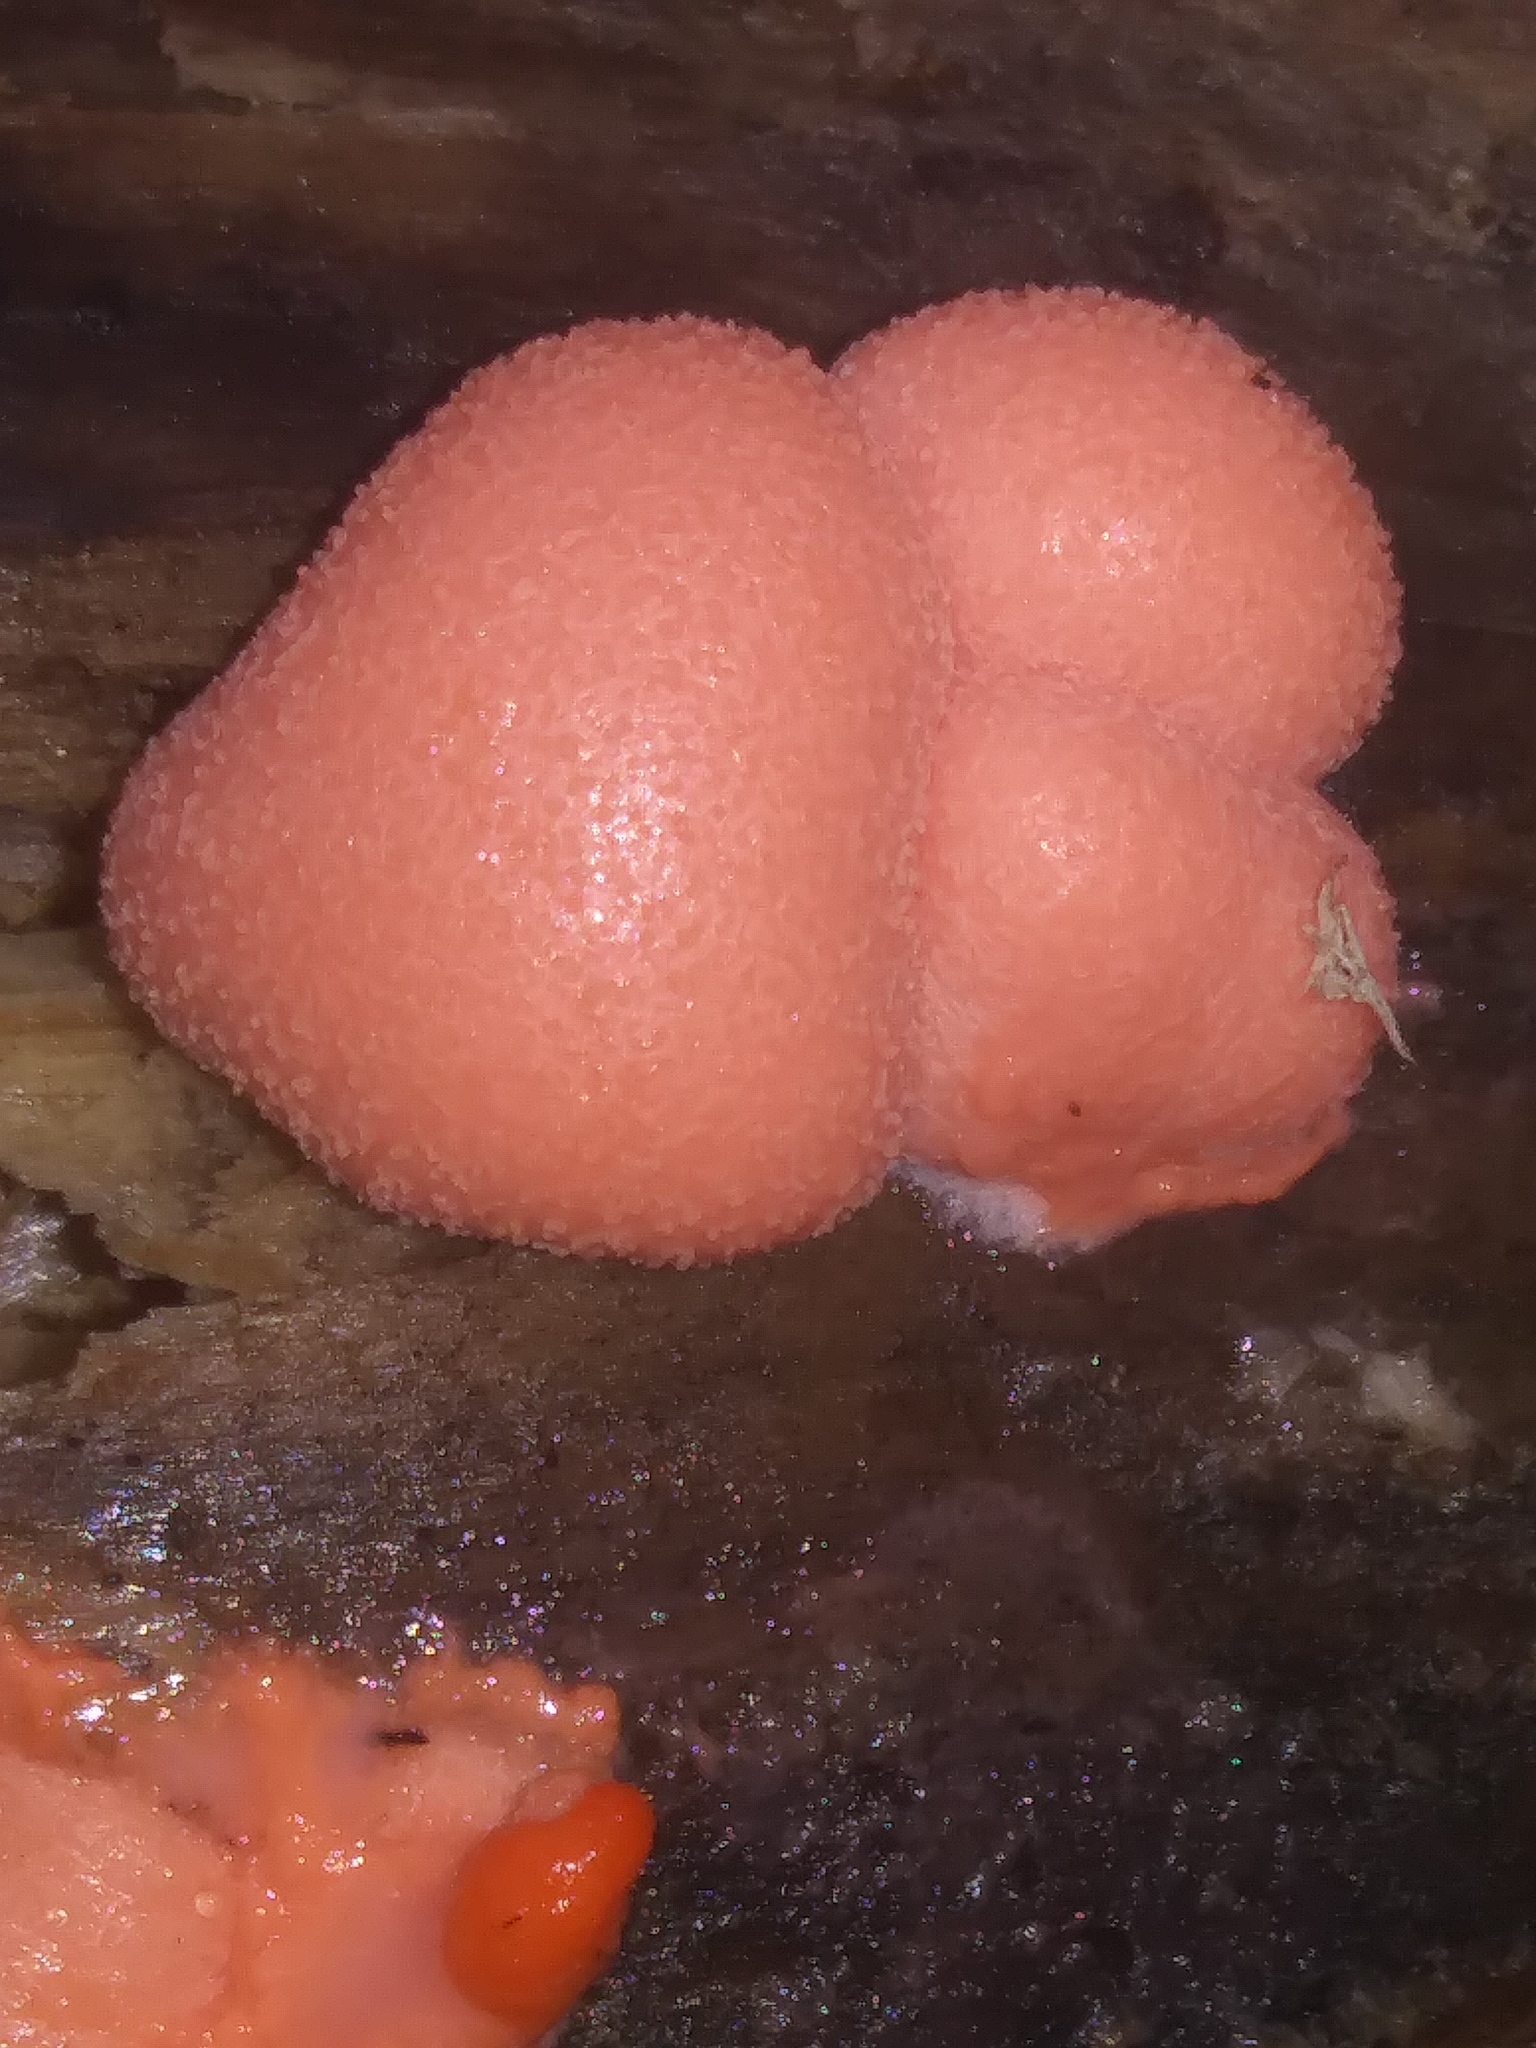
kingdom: Protozoa
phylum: Mycetozoa
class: Myxomycetes
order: Cribrariales
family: Tubiferaceae
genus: Lycogala
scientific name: Lycogala epidendrum
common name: Wolf's milk
